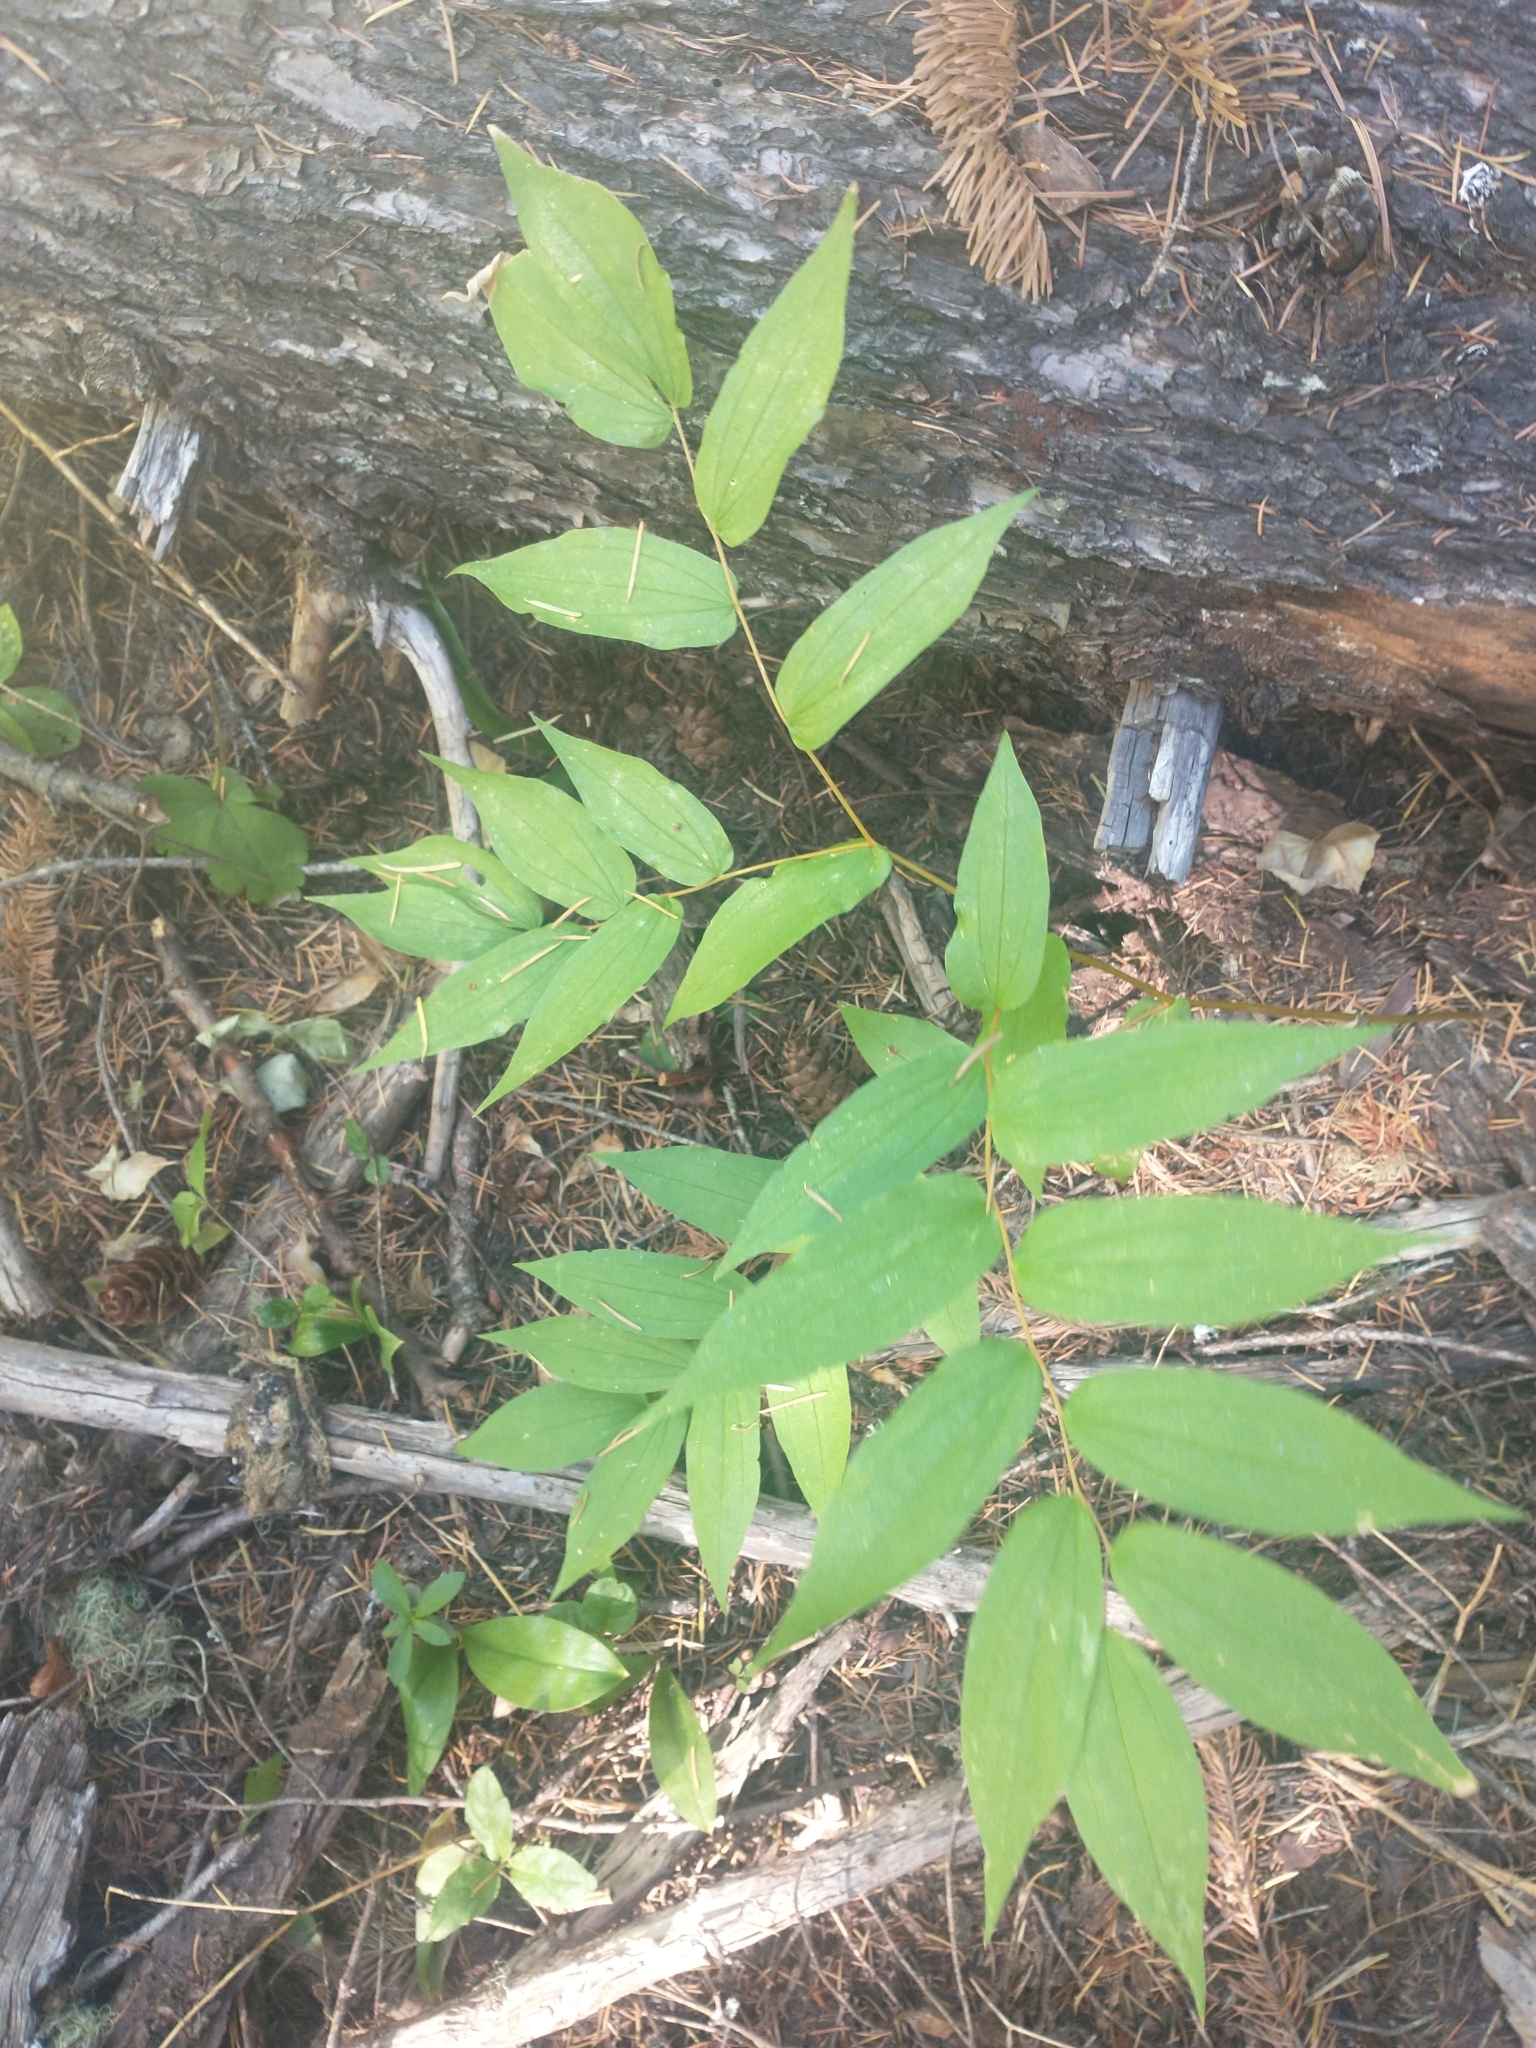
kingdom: Plantae
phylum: Tracheophyta
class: Liliopsida
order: Liliales
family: Liliaceae
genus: Prosartes
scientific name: Prosartes hookeri
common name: Fairy-bells
